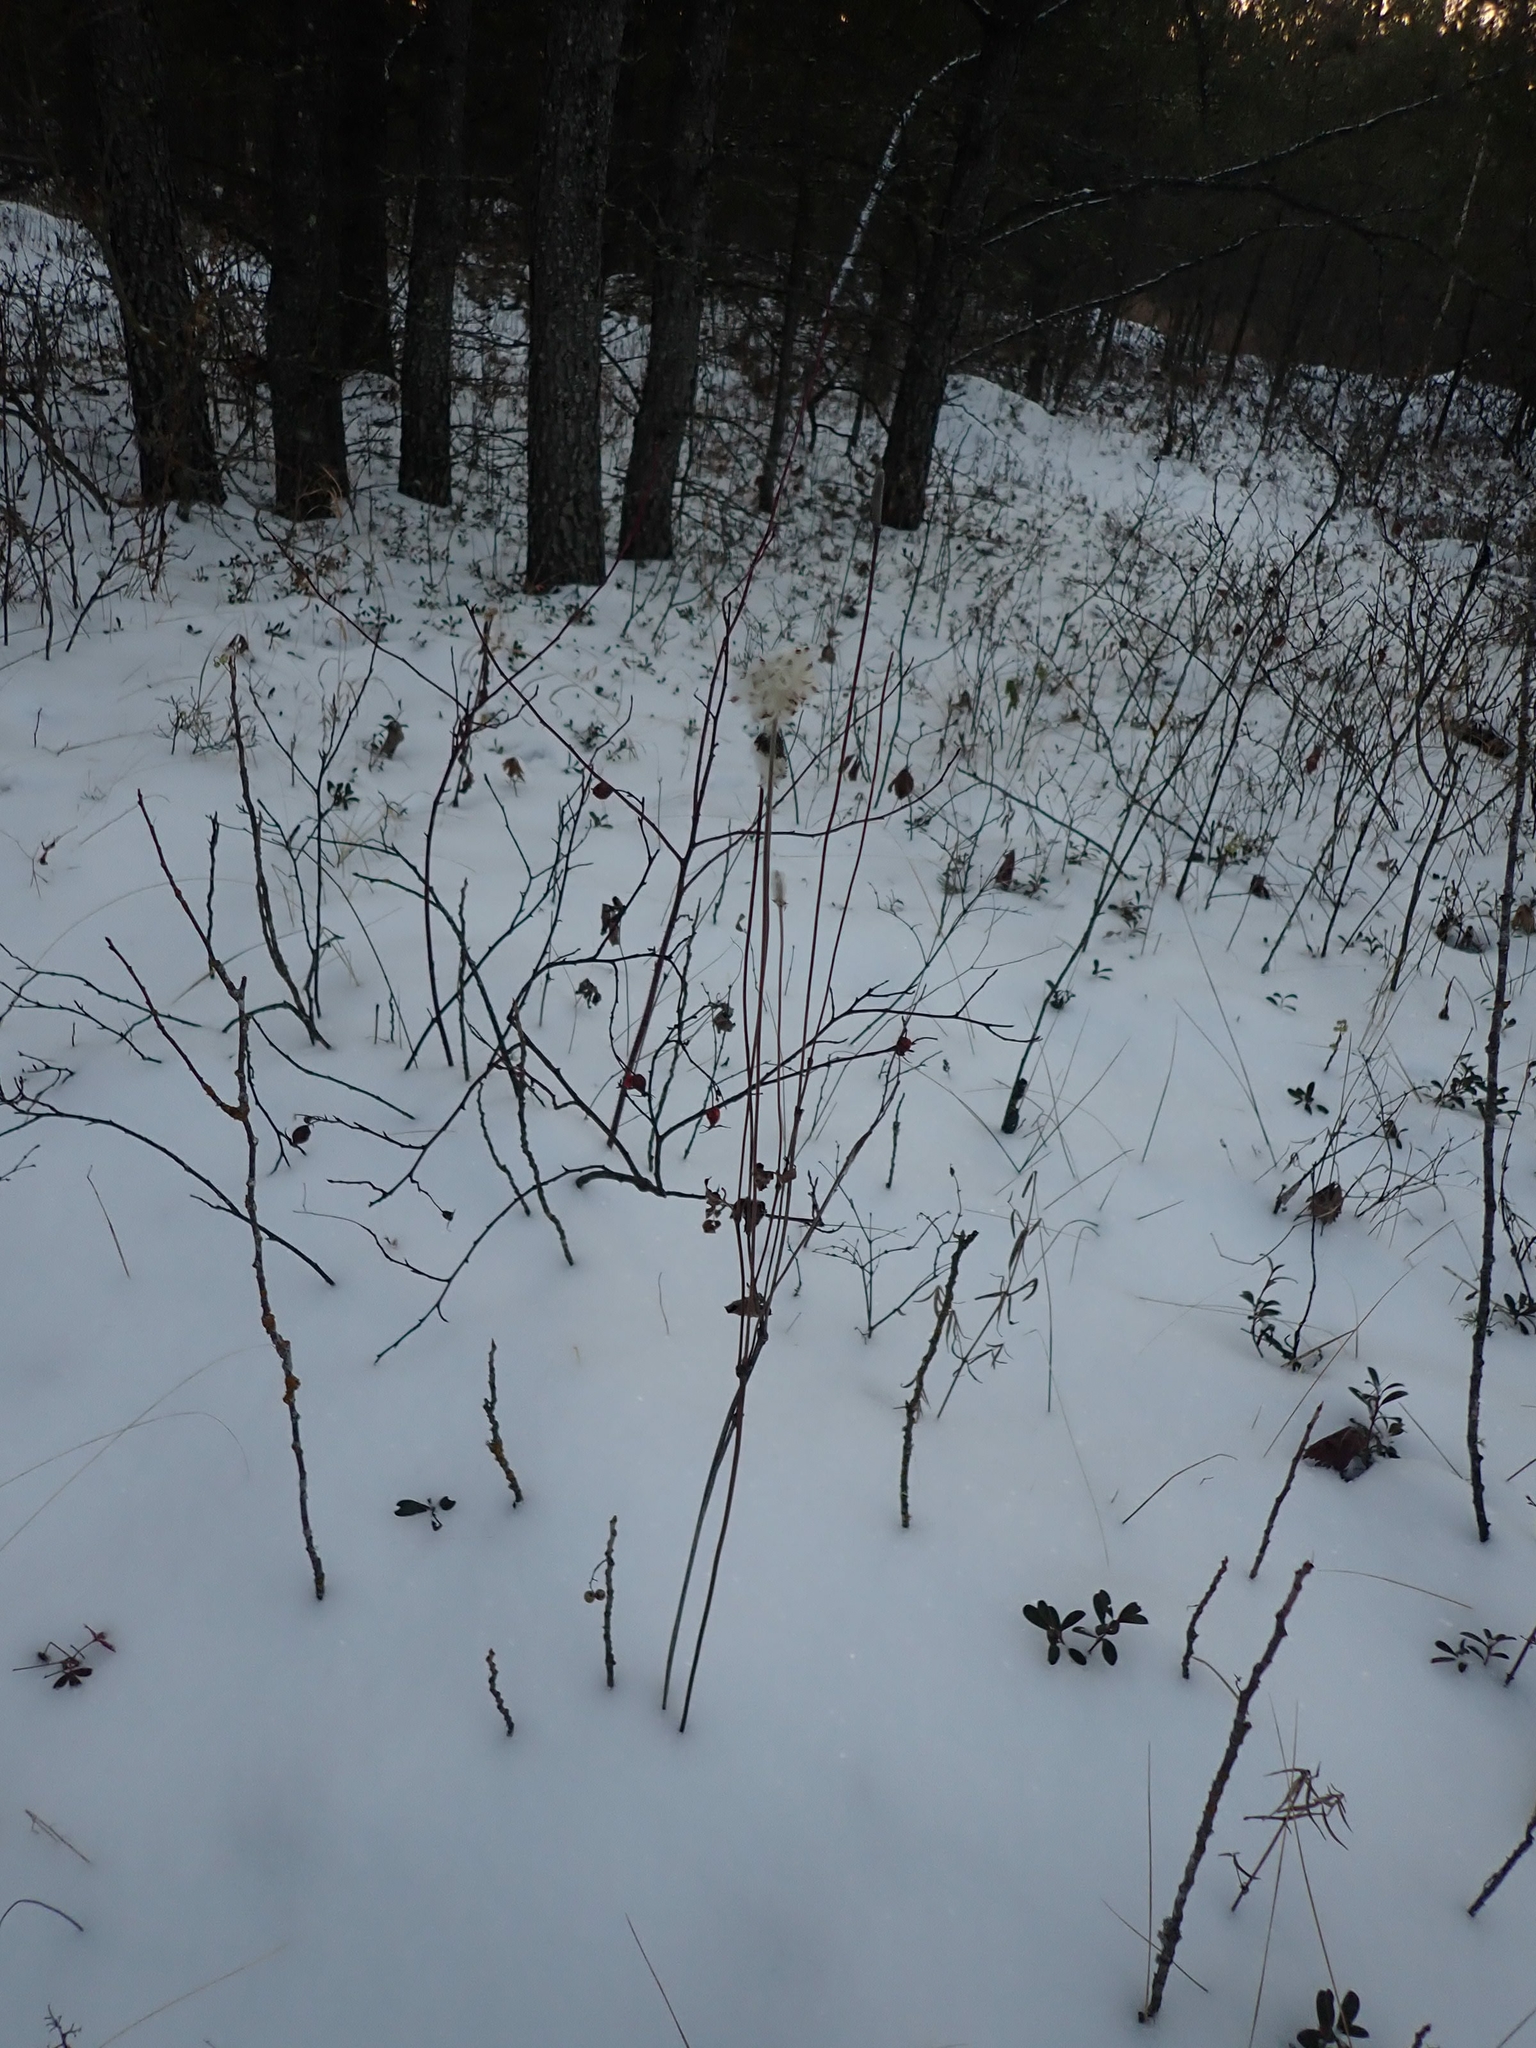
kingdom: Plantae
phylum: Tracheophyta
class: Magnoliopsida
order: Ranunculales
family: Ranunculaceae
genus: Anemone
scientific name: Anemone cylindrica
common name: Candle anemone
